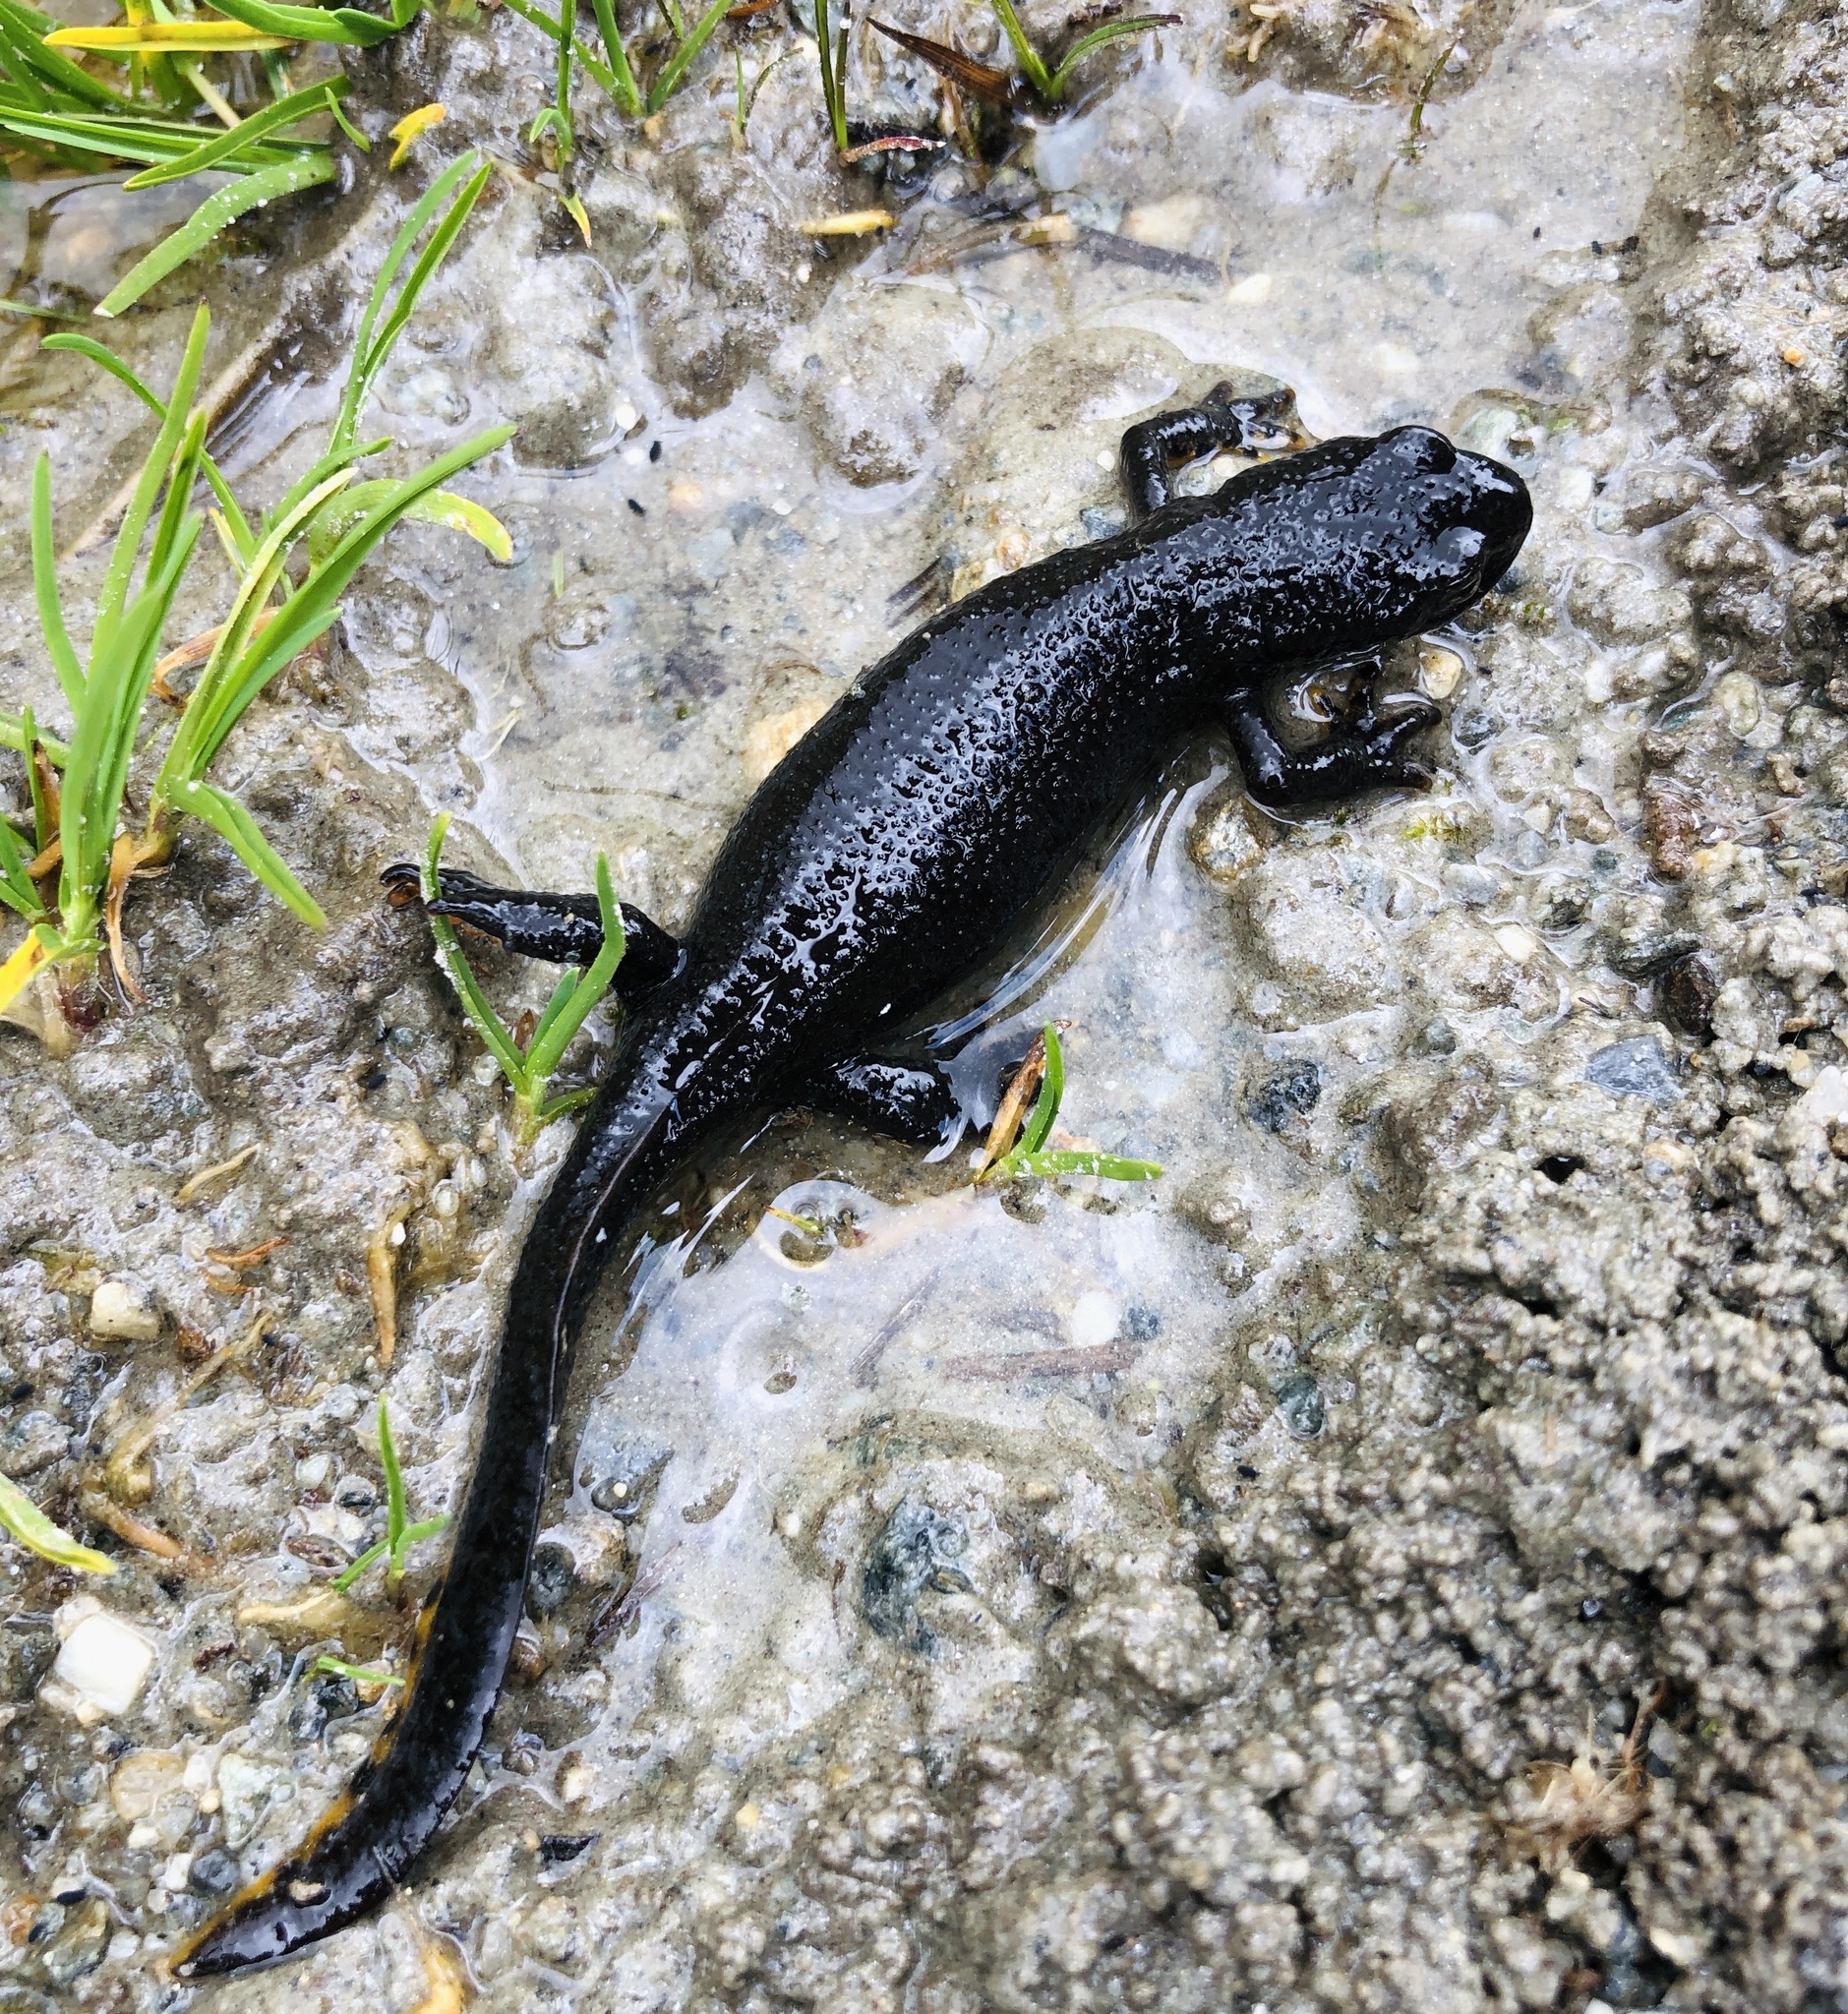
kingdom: Animalia
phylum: Chordata
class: Amphibia
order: Caudata
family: Salamandridae
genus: Ichthyosaura
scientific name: Ichthyosaura alpestris
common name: Alpine newt
